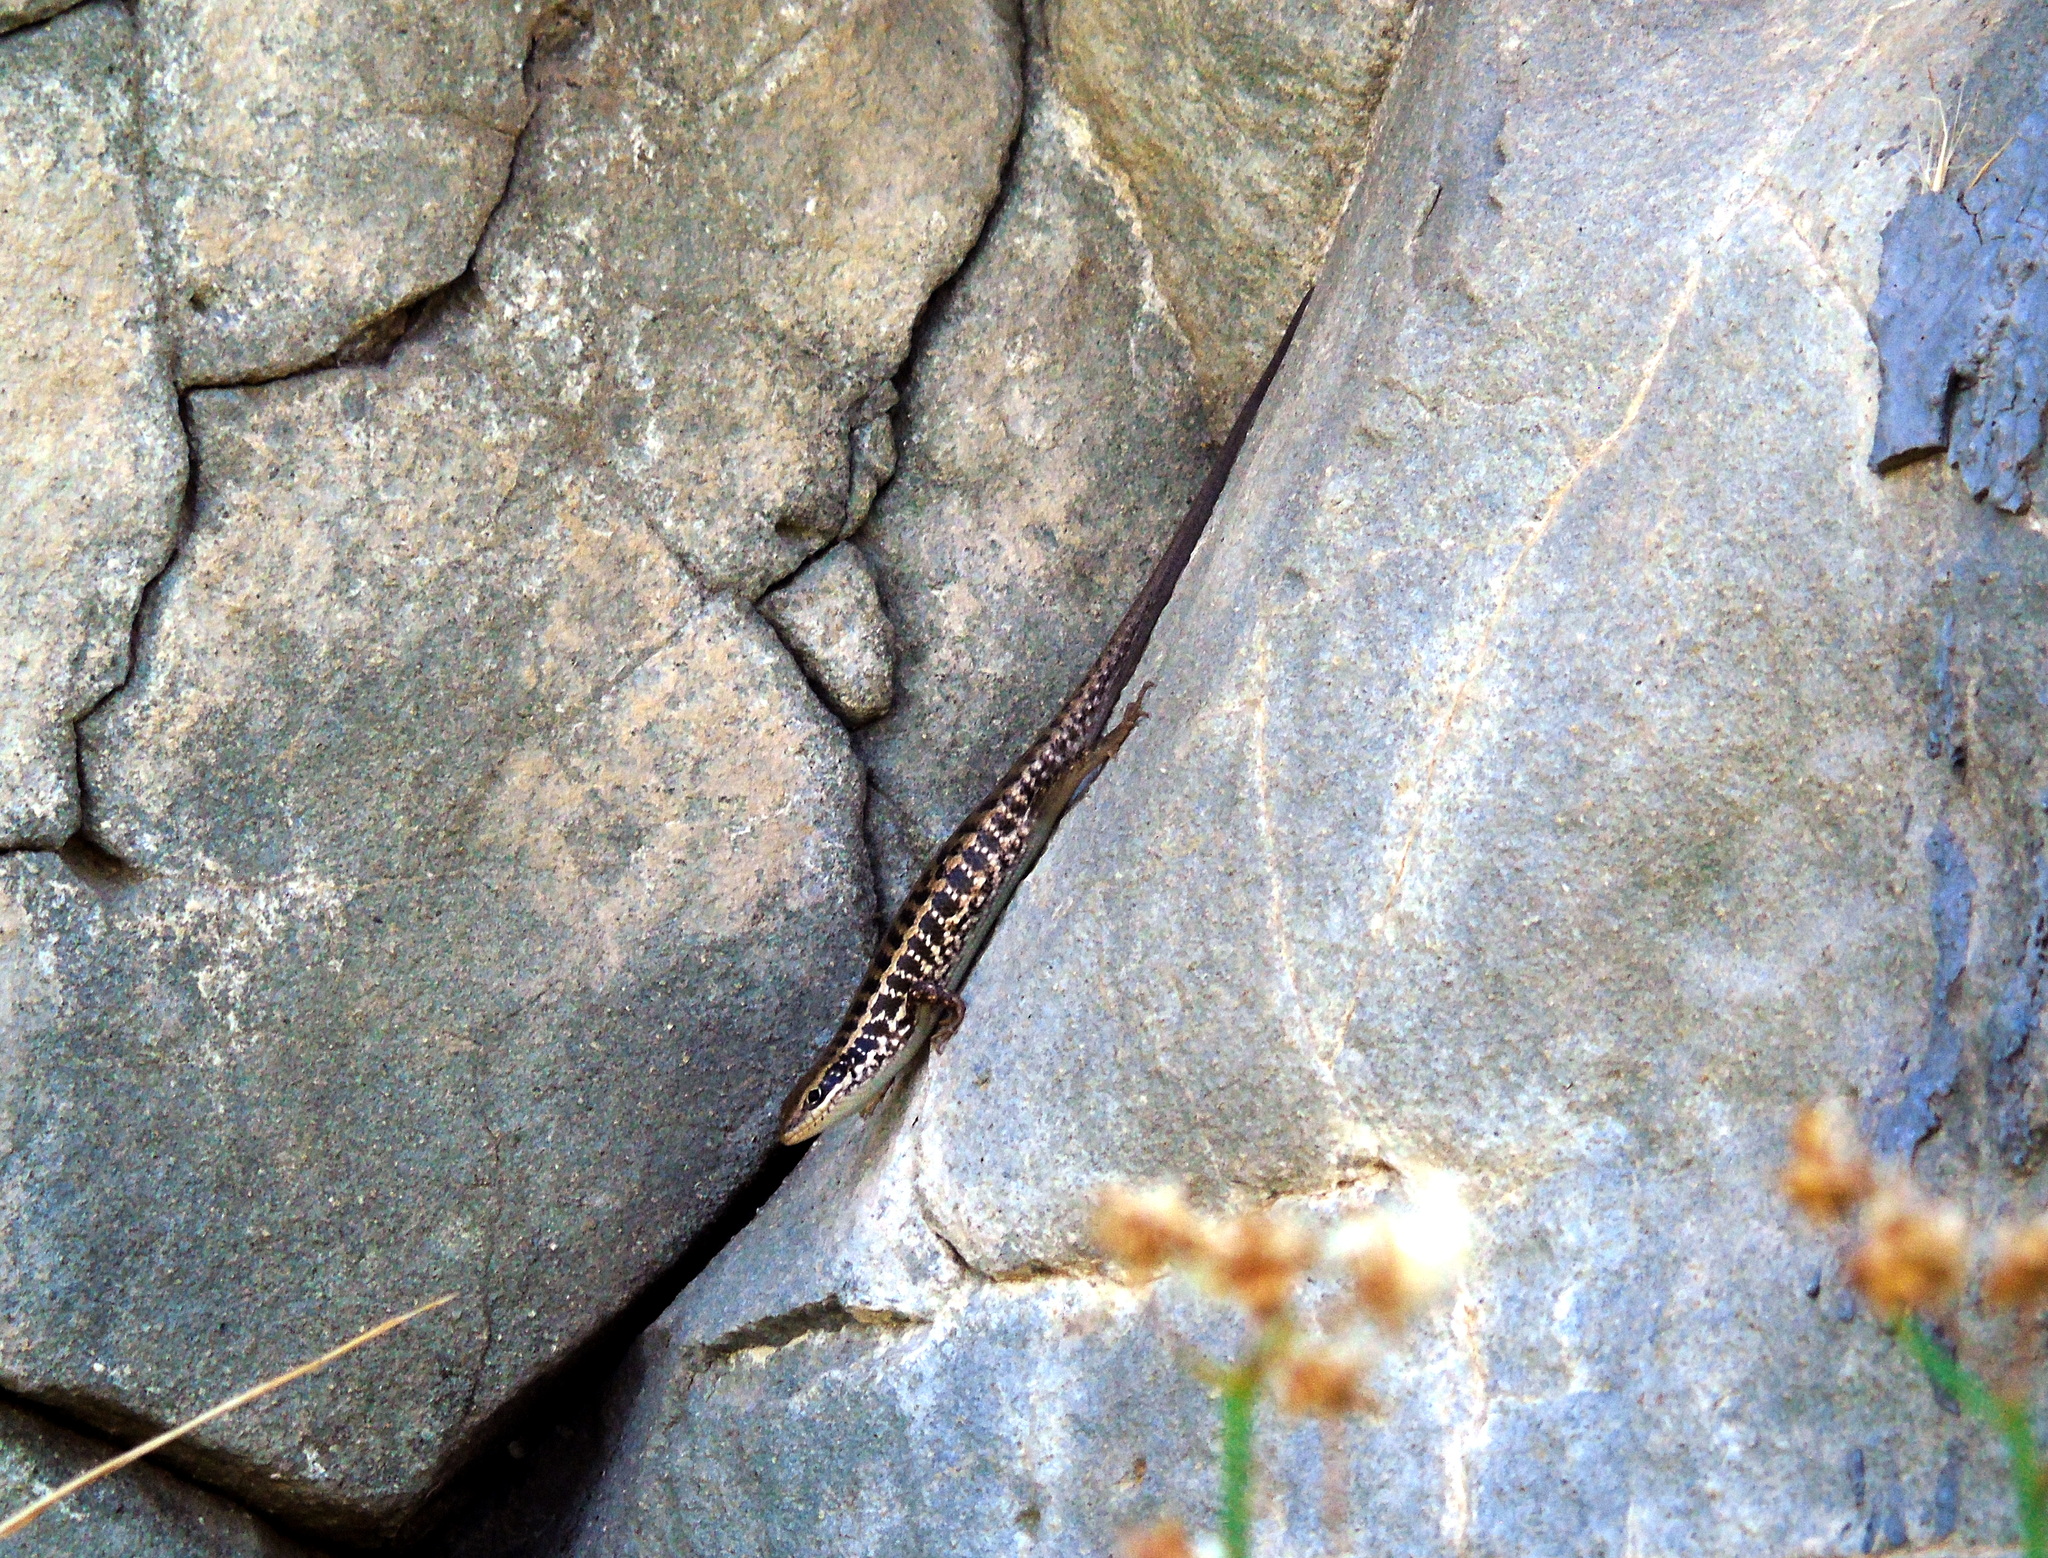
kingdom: Animalia
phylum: Chordata
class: Squamata
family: Scincidae
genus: Heremites
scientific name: Heremites auratus
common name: Golden grass mabuya
